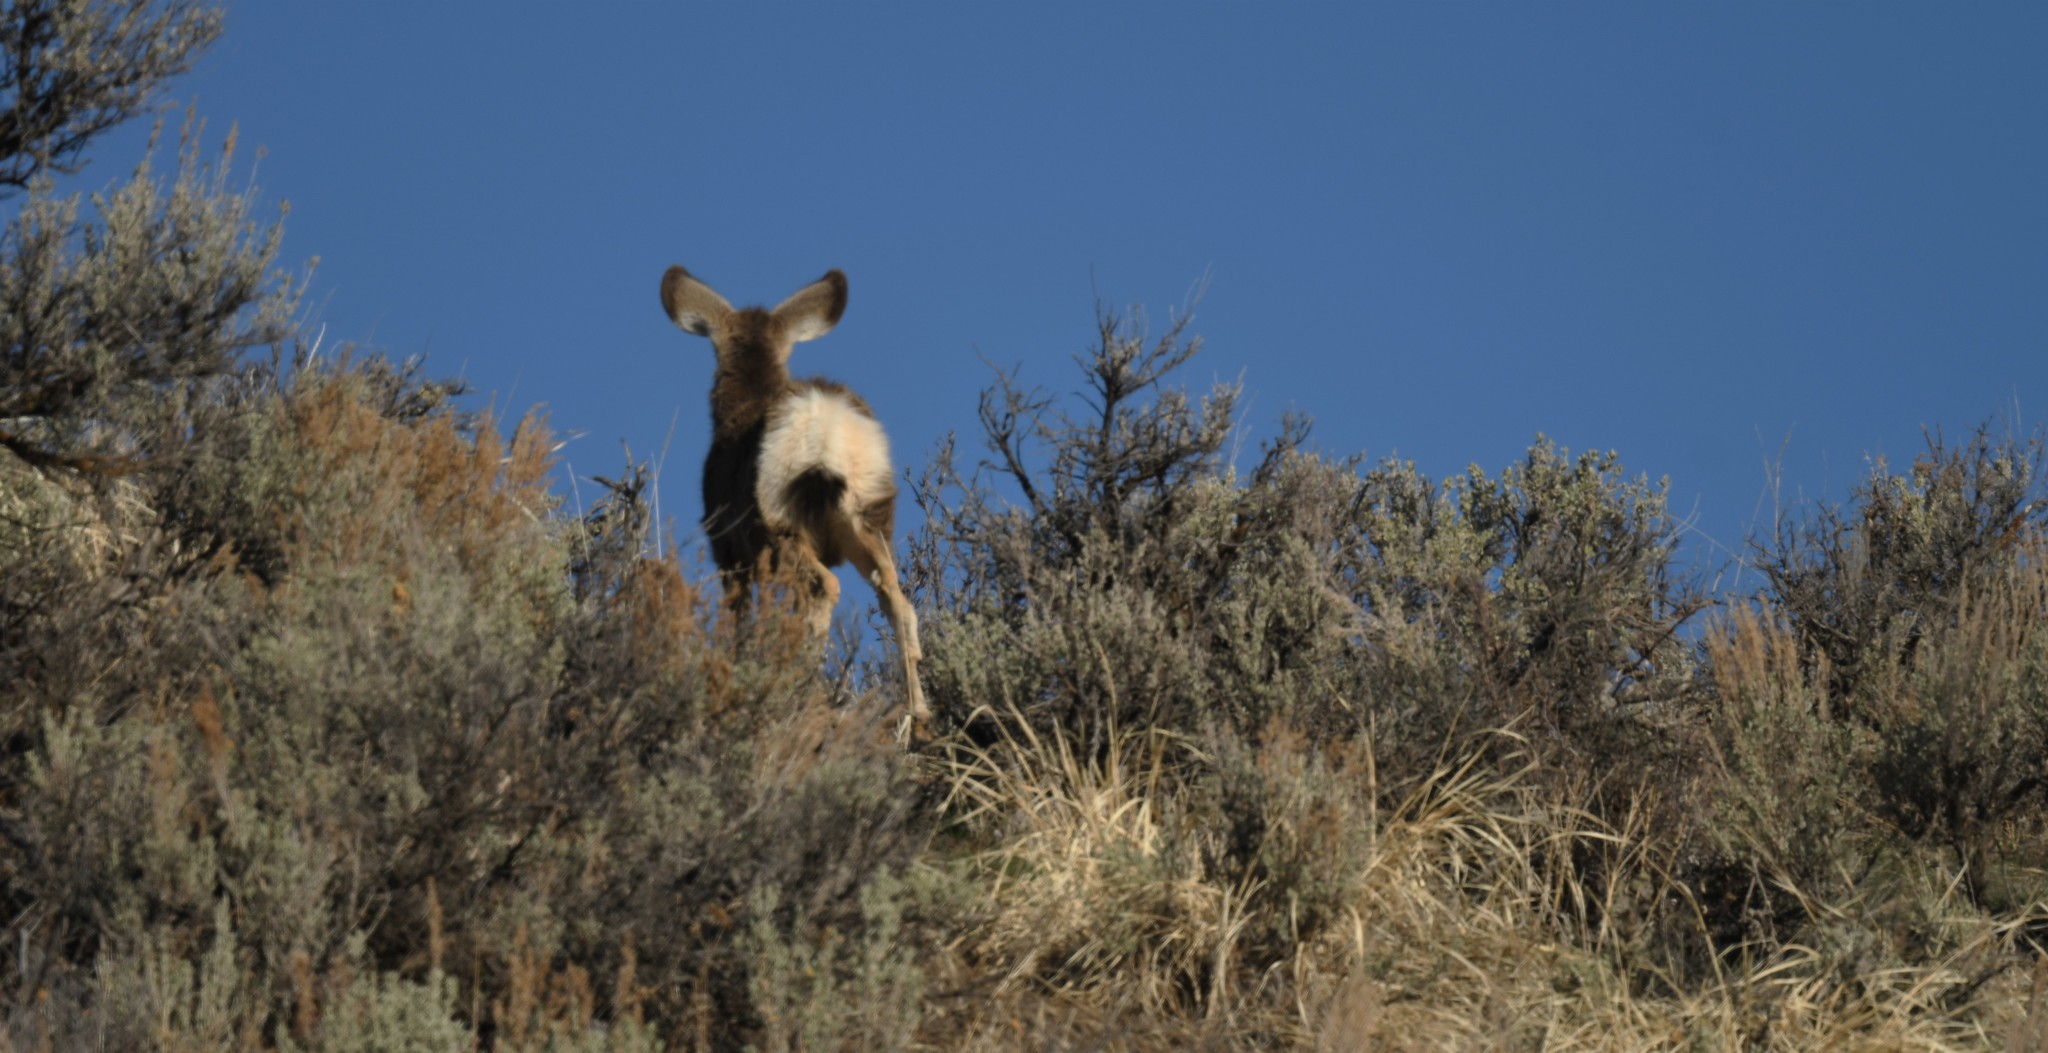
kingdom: Animalia
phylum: Chordata
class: Mammalia
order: Artiodactyla
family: Cervidae
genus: Odocoileus
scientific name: Odocoileus hemionus
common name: Mule deer
